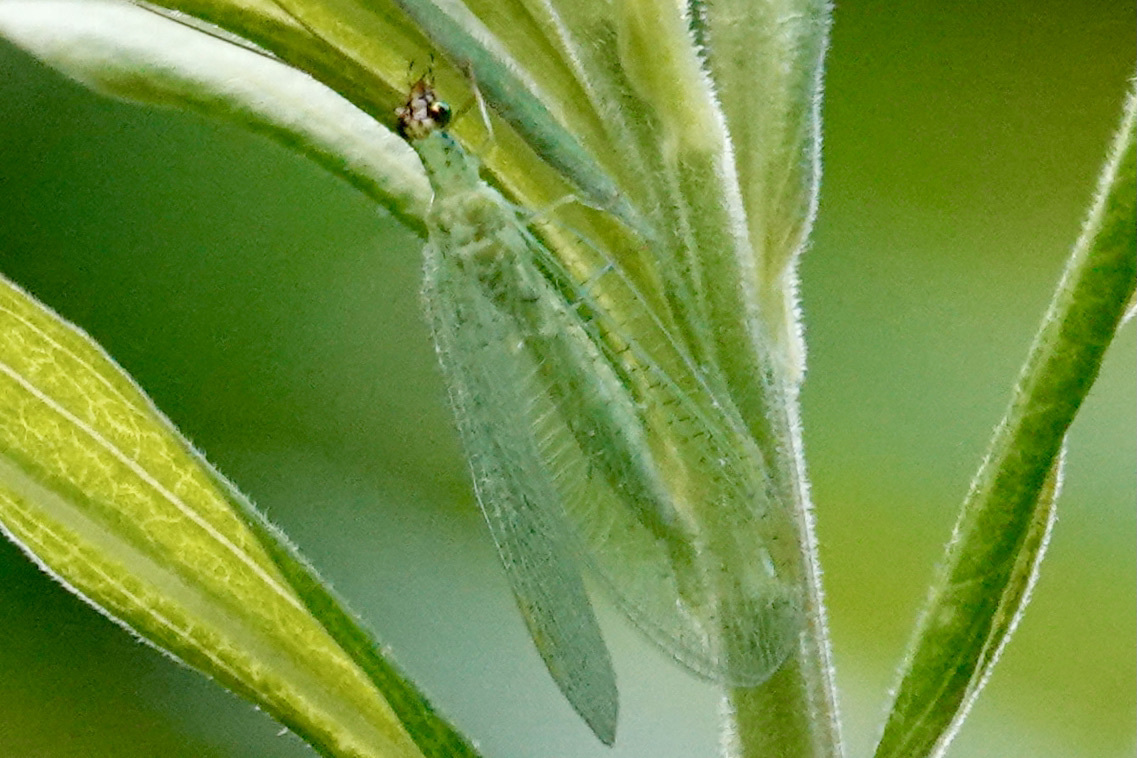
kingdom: Animalia
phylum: Arthropoda
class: Insecta
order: Neuroptera
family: Chrysopidae
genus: Chrysopa
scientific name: Chrysopa oculata
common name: Golden-eyed lacewing
